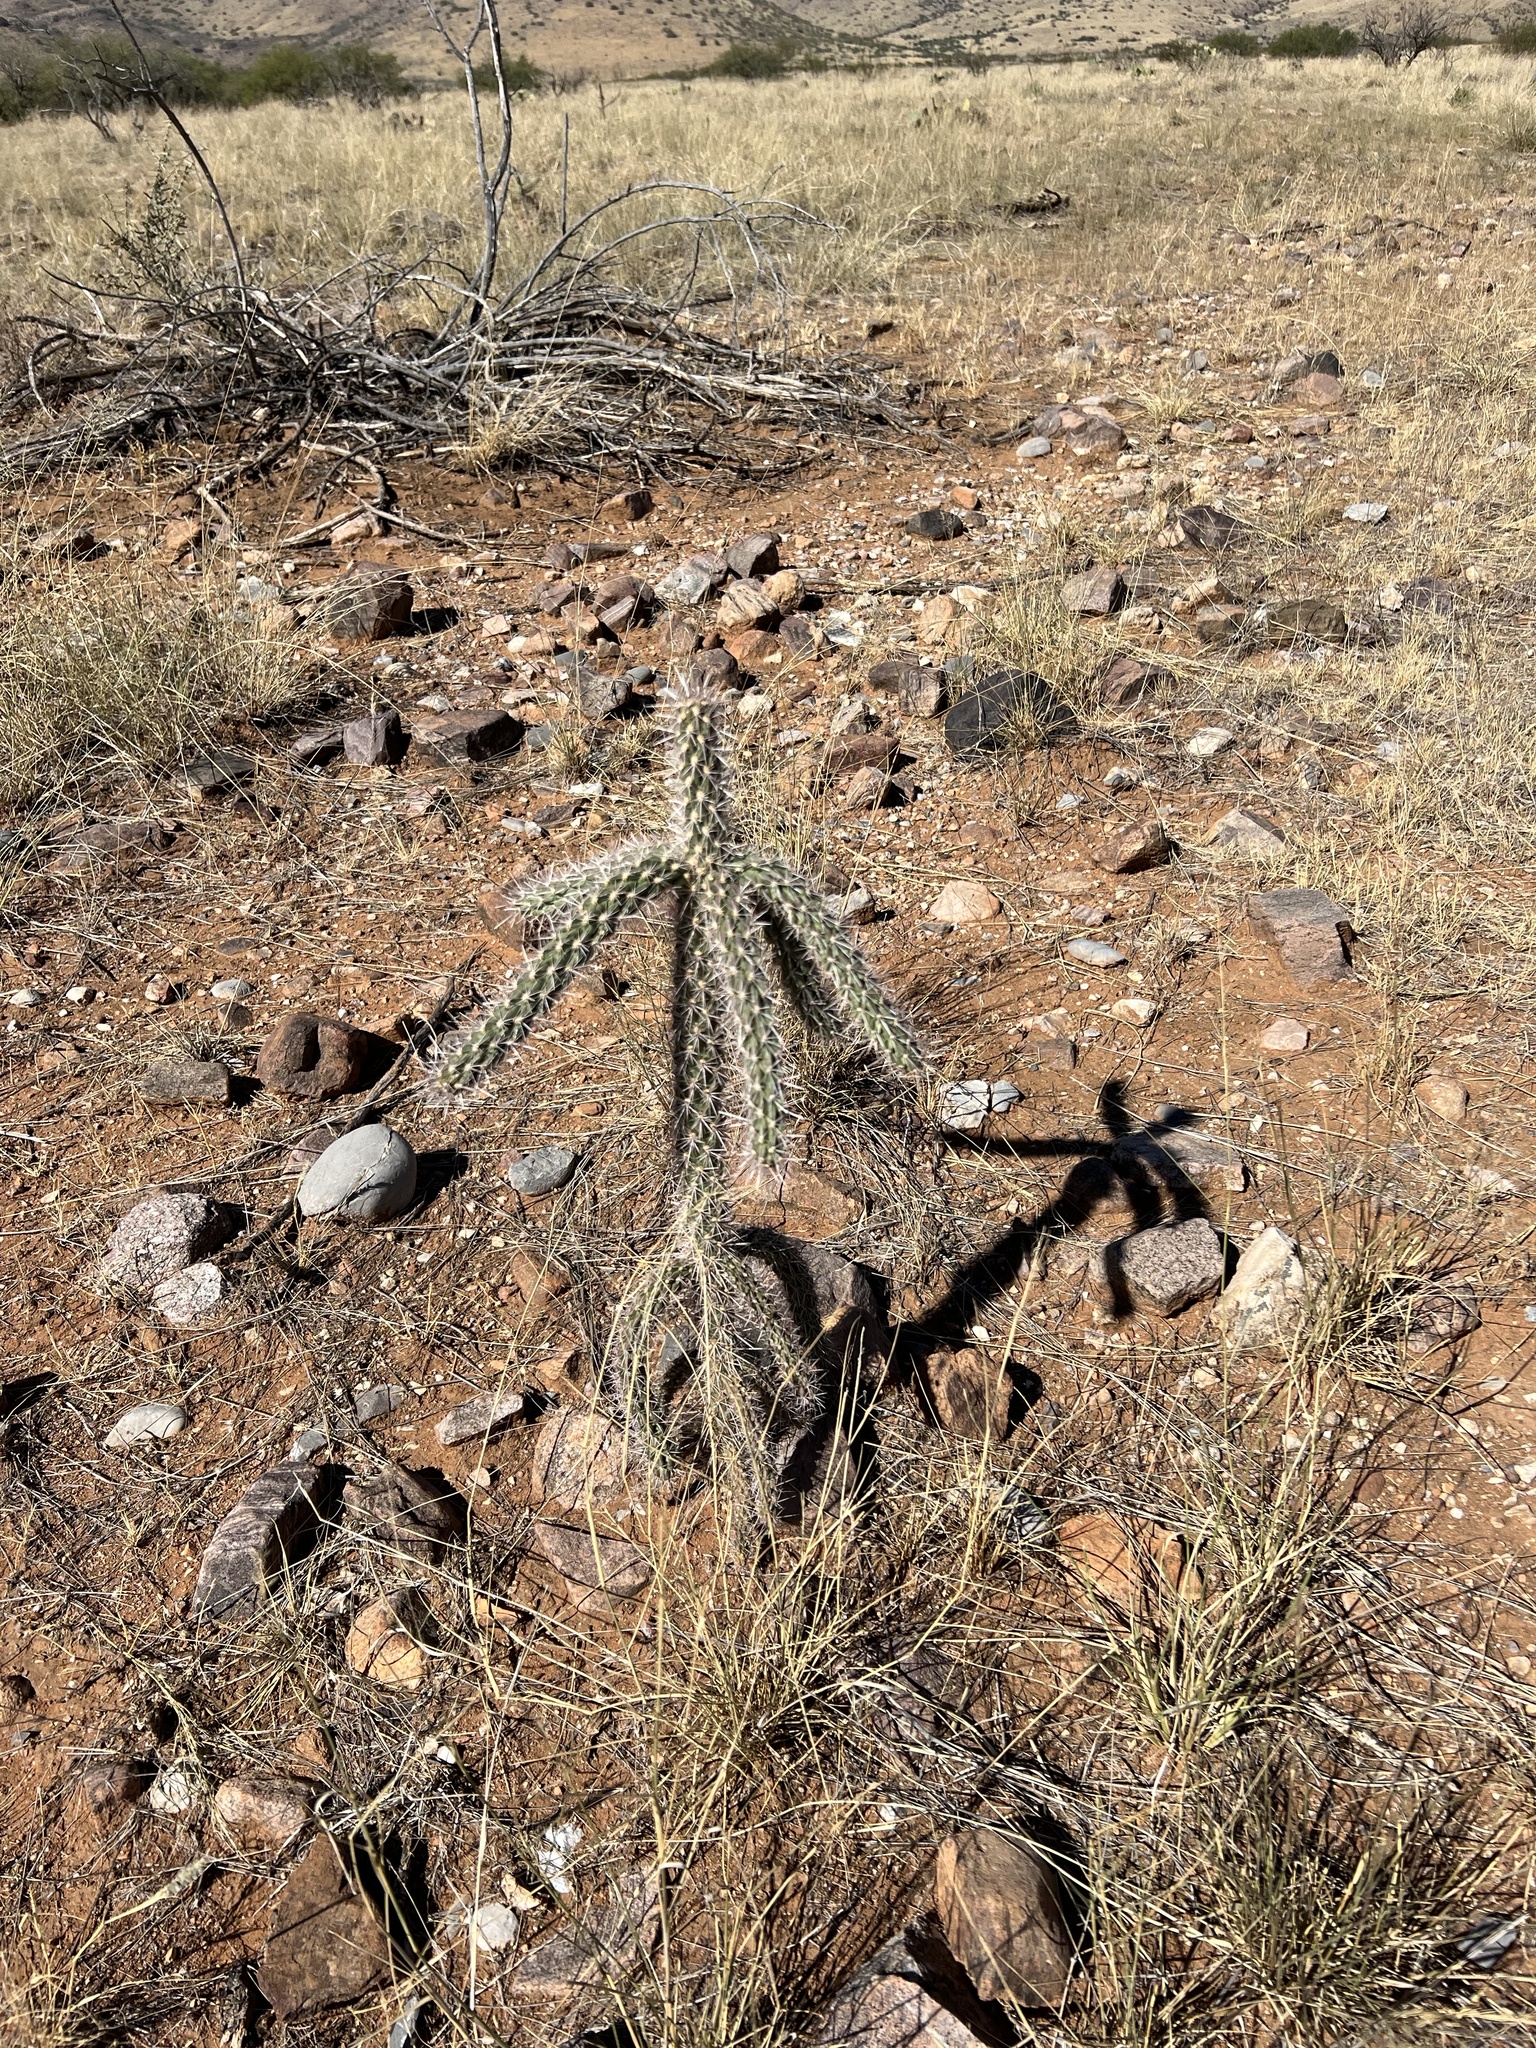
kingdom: Plantae
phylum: Tracheophyta
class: Magnoliopsida
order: Caryophyllales
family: Cactaceae
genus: Cylindropuntia
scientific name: Cylindropuntia imbricata
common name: Candelabrum cactus
